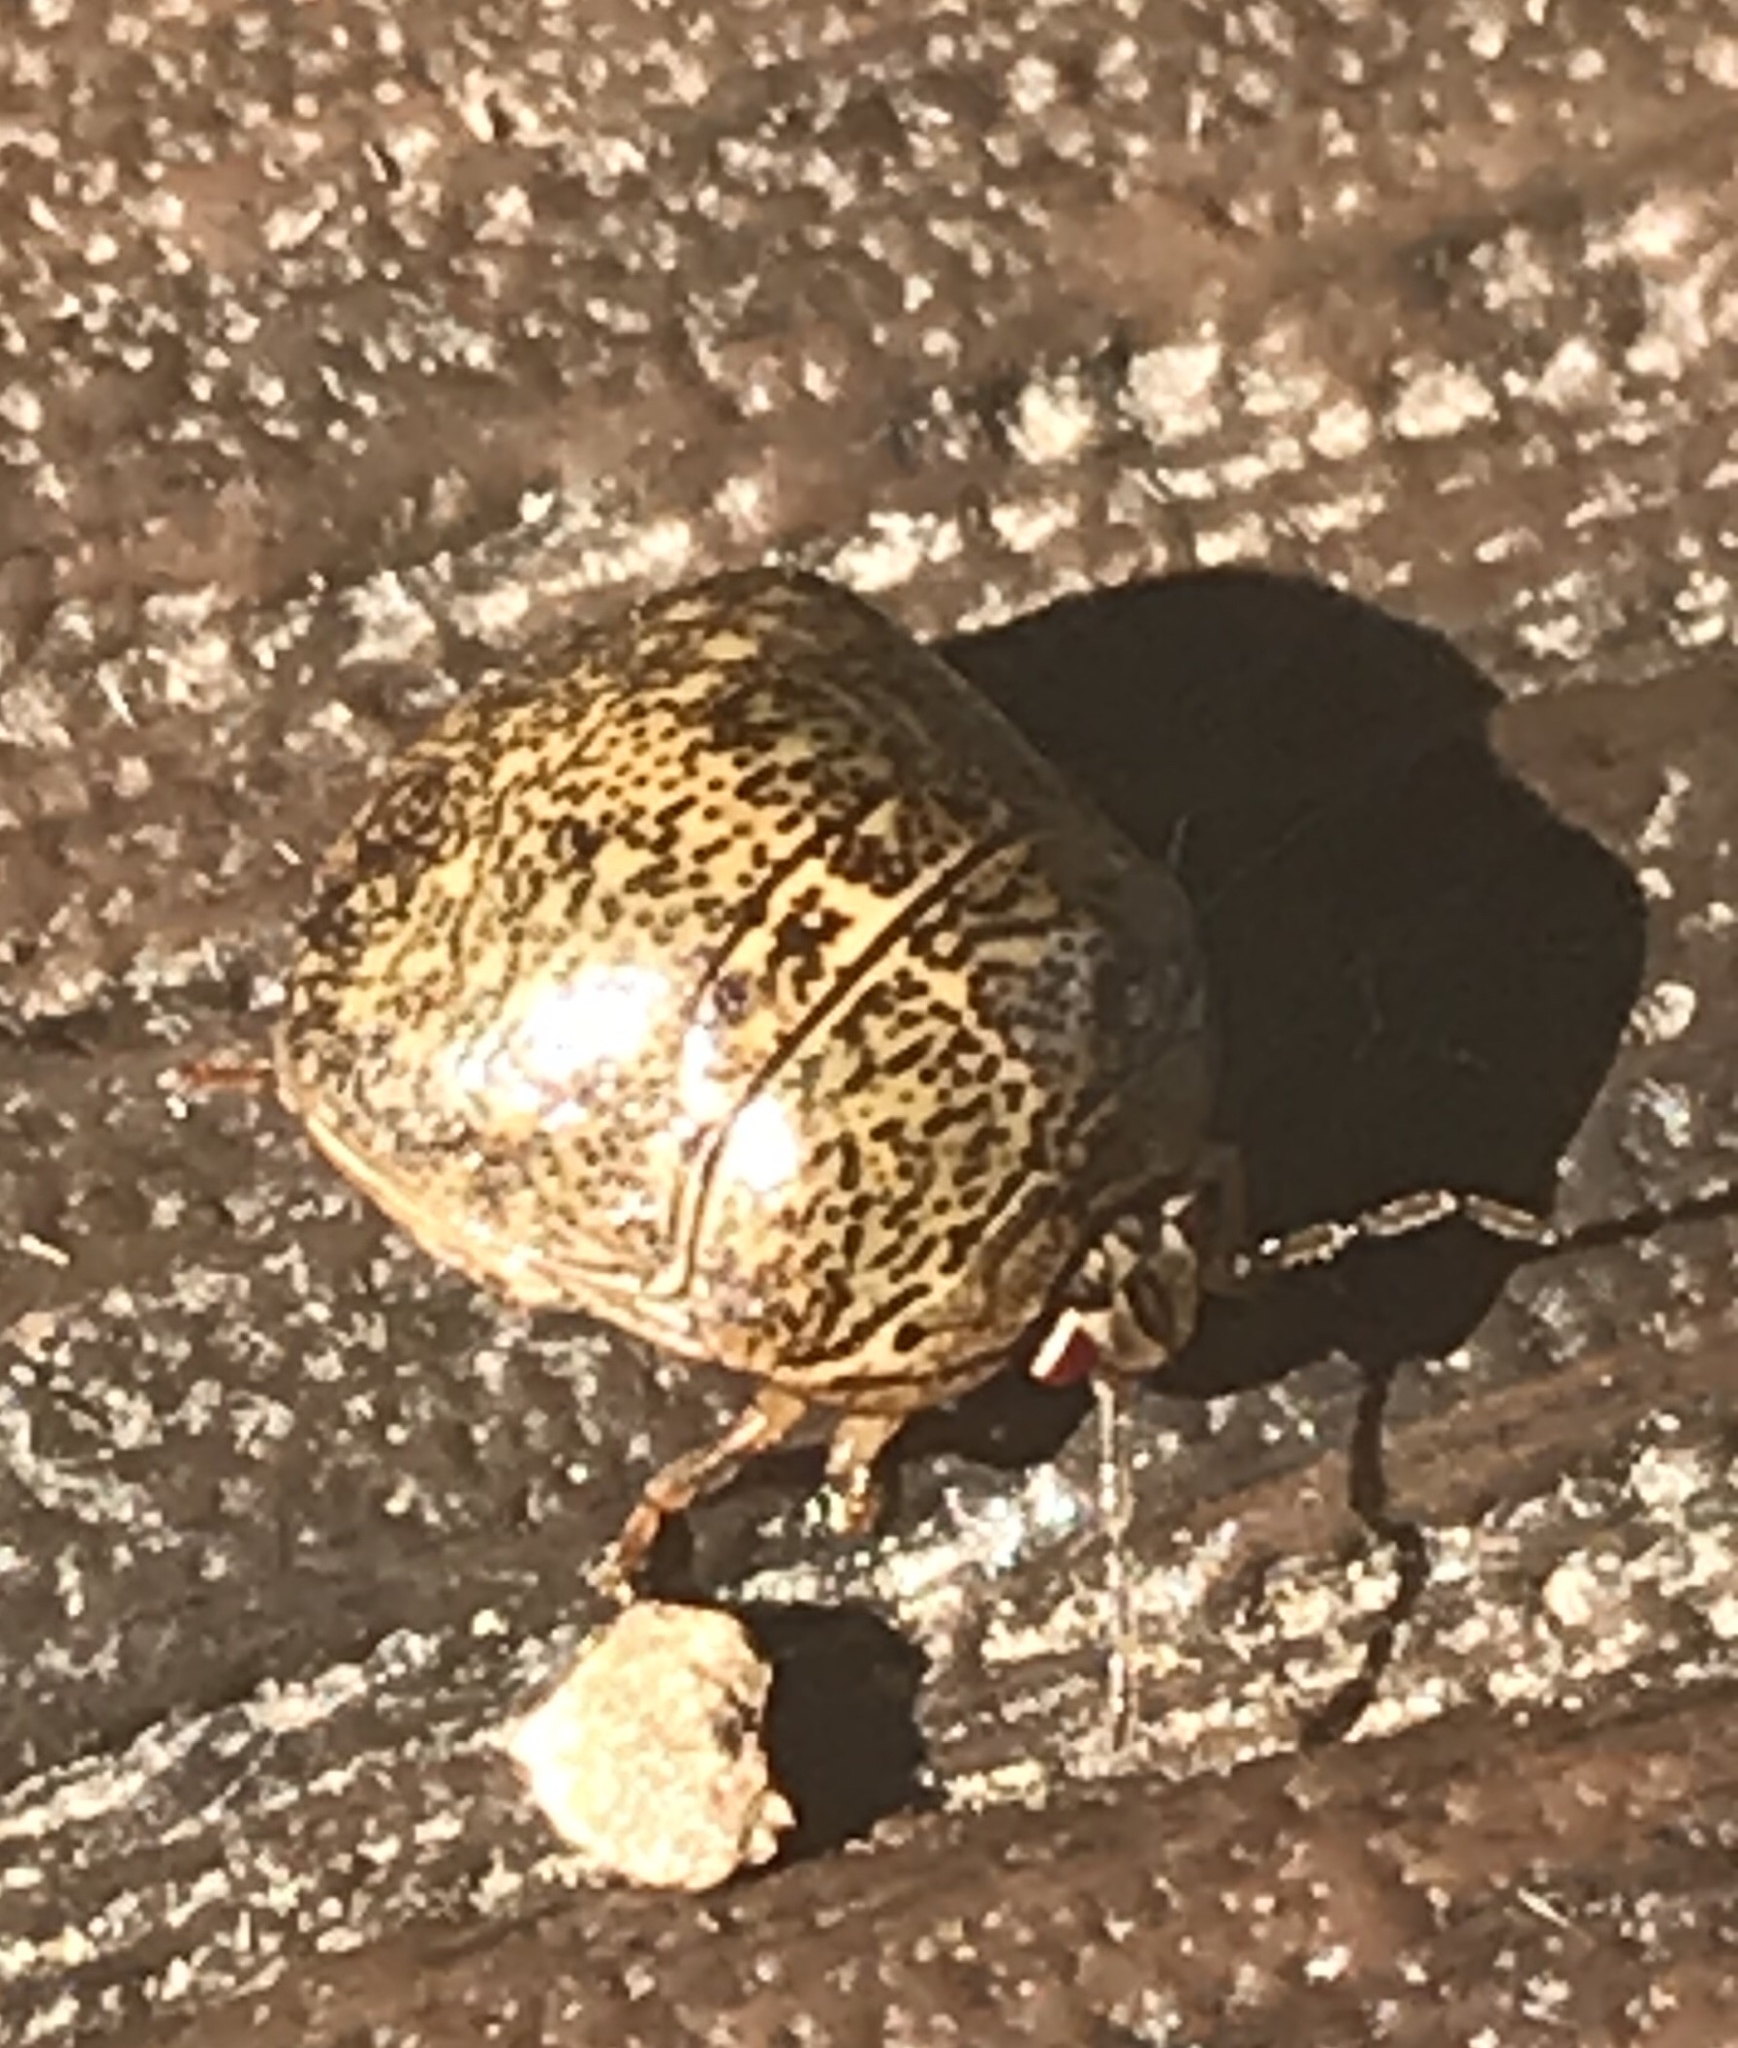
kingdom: Animalia
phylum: Arthropoda
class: Insecta
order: Hemiptera
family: Plataspidae
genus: Megacopta
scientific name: Megacopta cribraria
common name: Bean plataspid
